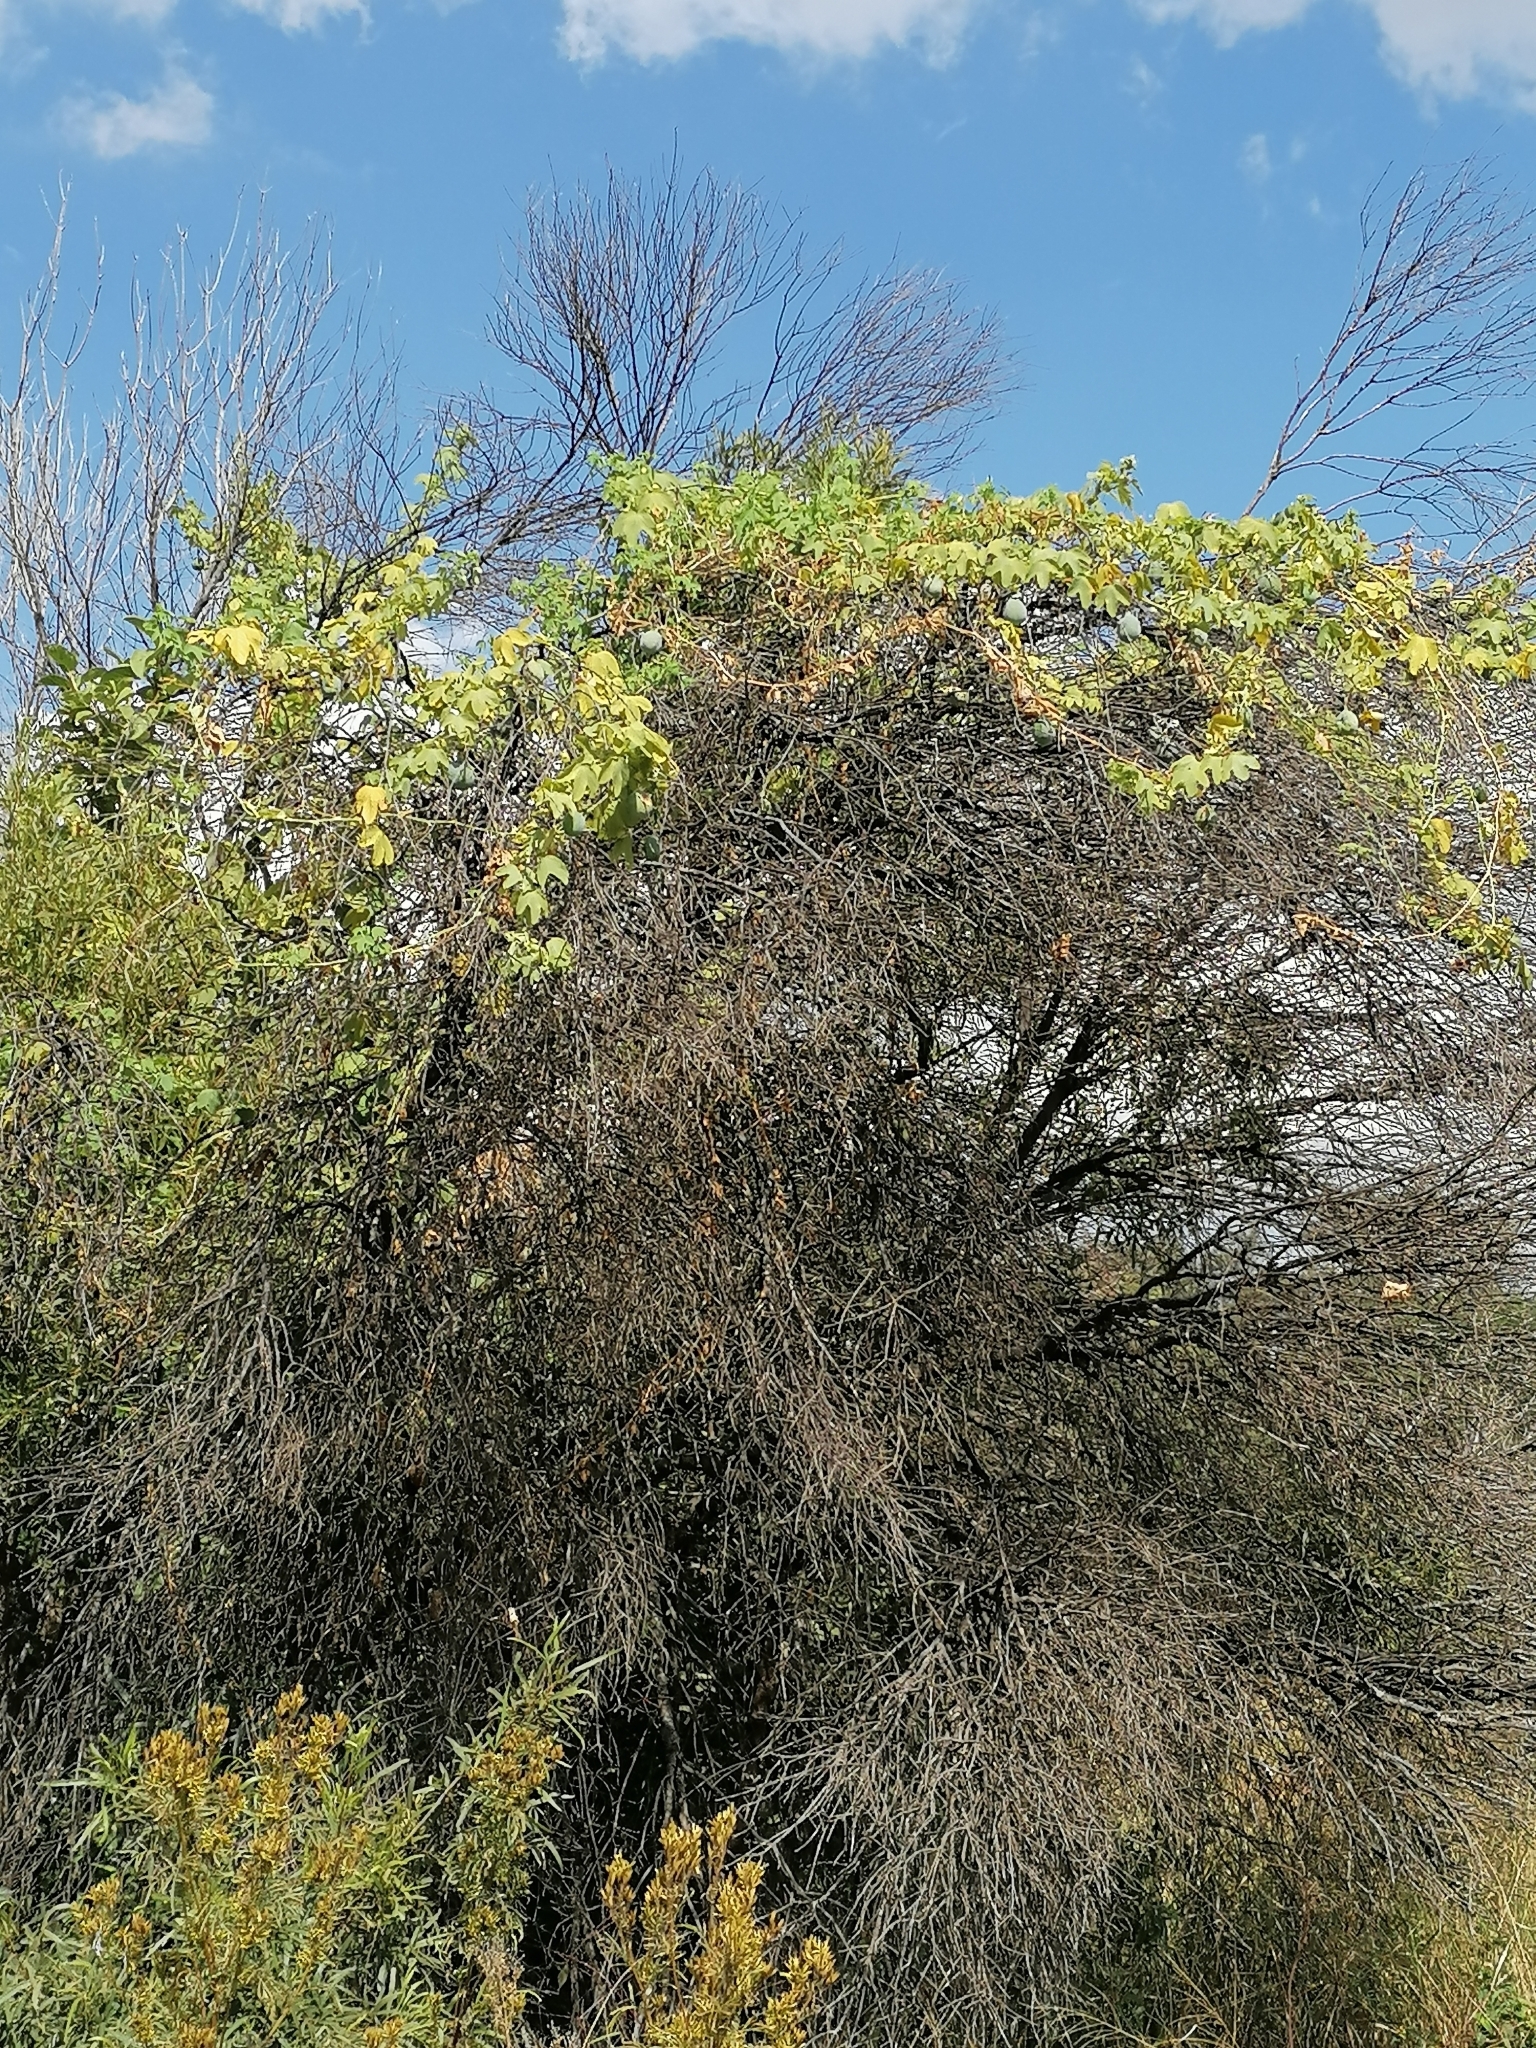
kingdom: Plantae
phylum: Tracheophyta
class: Magnoliopsida
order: Malpighiales
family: Passifloraceae
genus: Passiflora
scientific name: Passiflora subpeltata
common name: White passionflower
